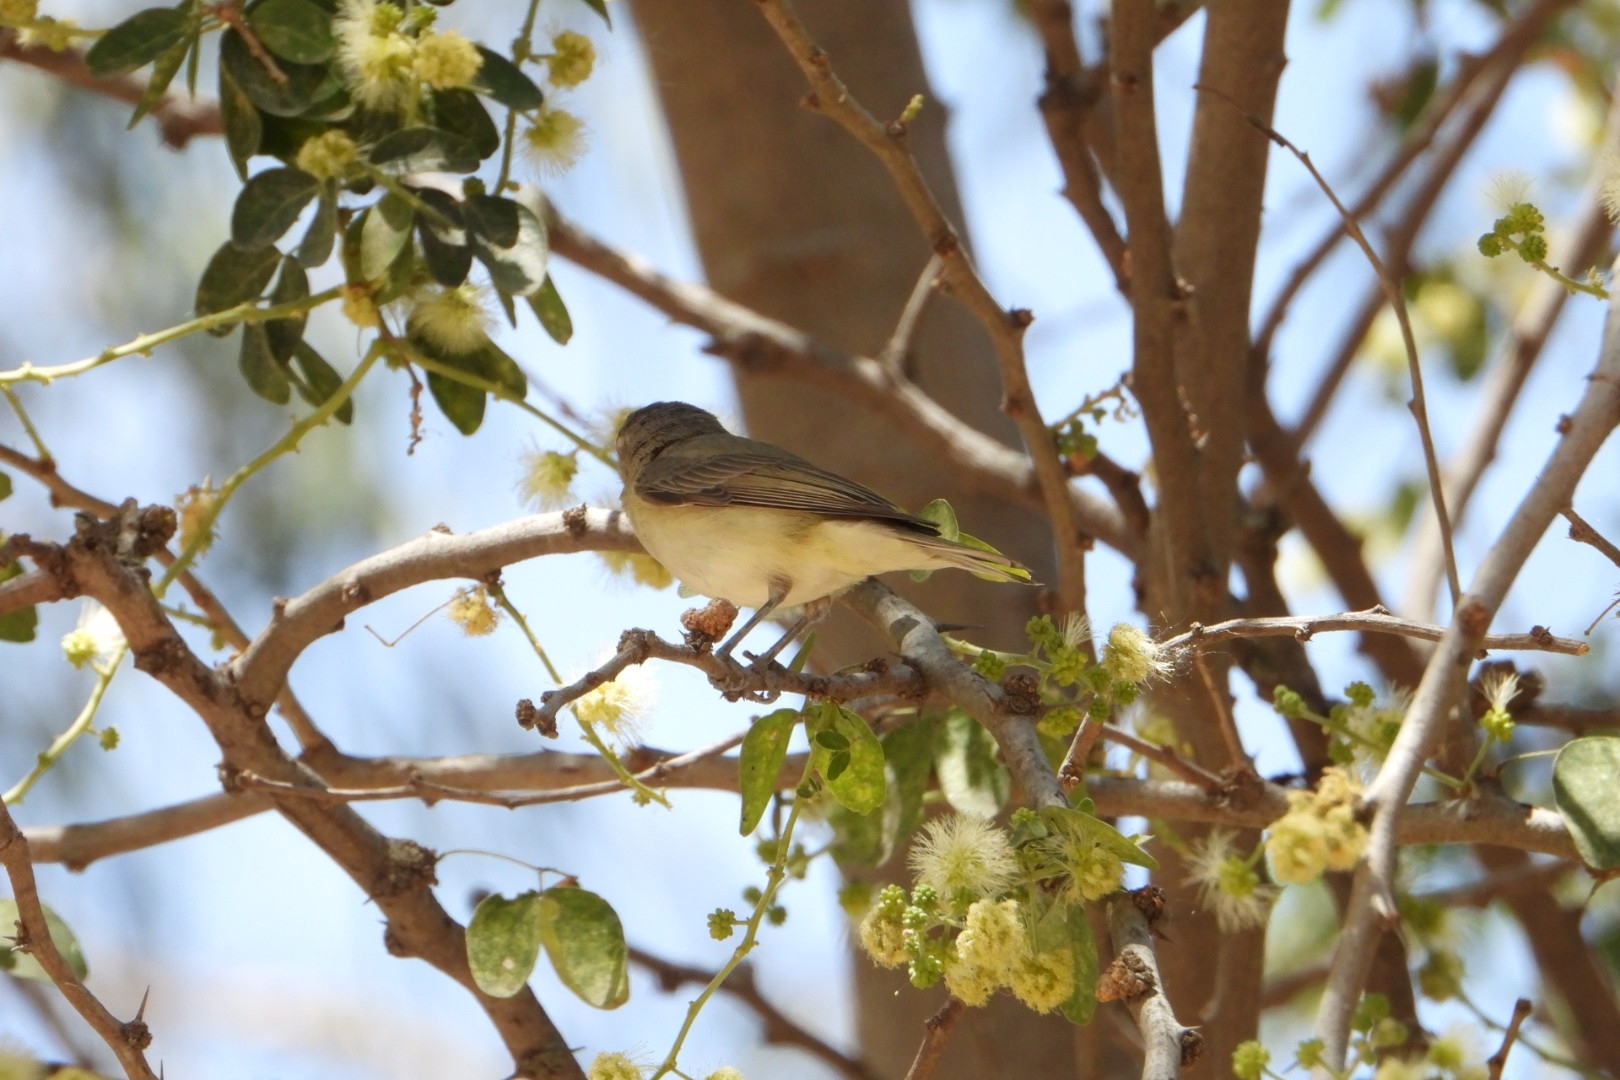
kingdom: Animalia
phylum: Chordata
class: Aves
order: Passeriformes
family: Vireonidae
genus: Vireo
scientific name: Vireo gilvus
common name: Warbling vireo
